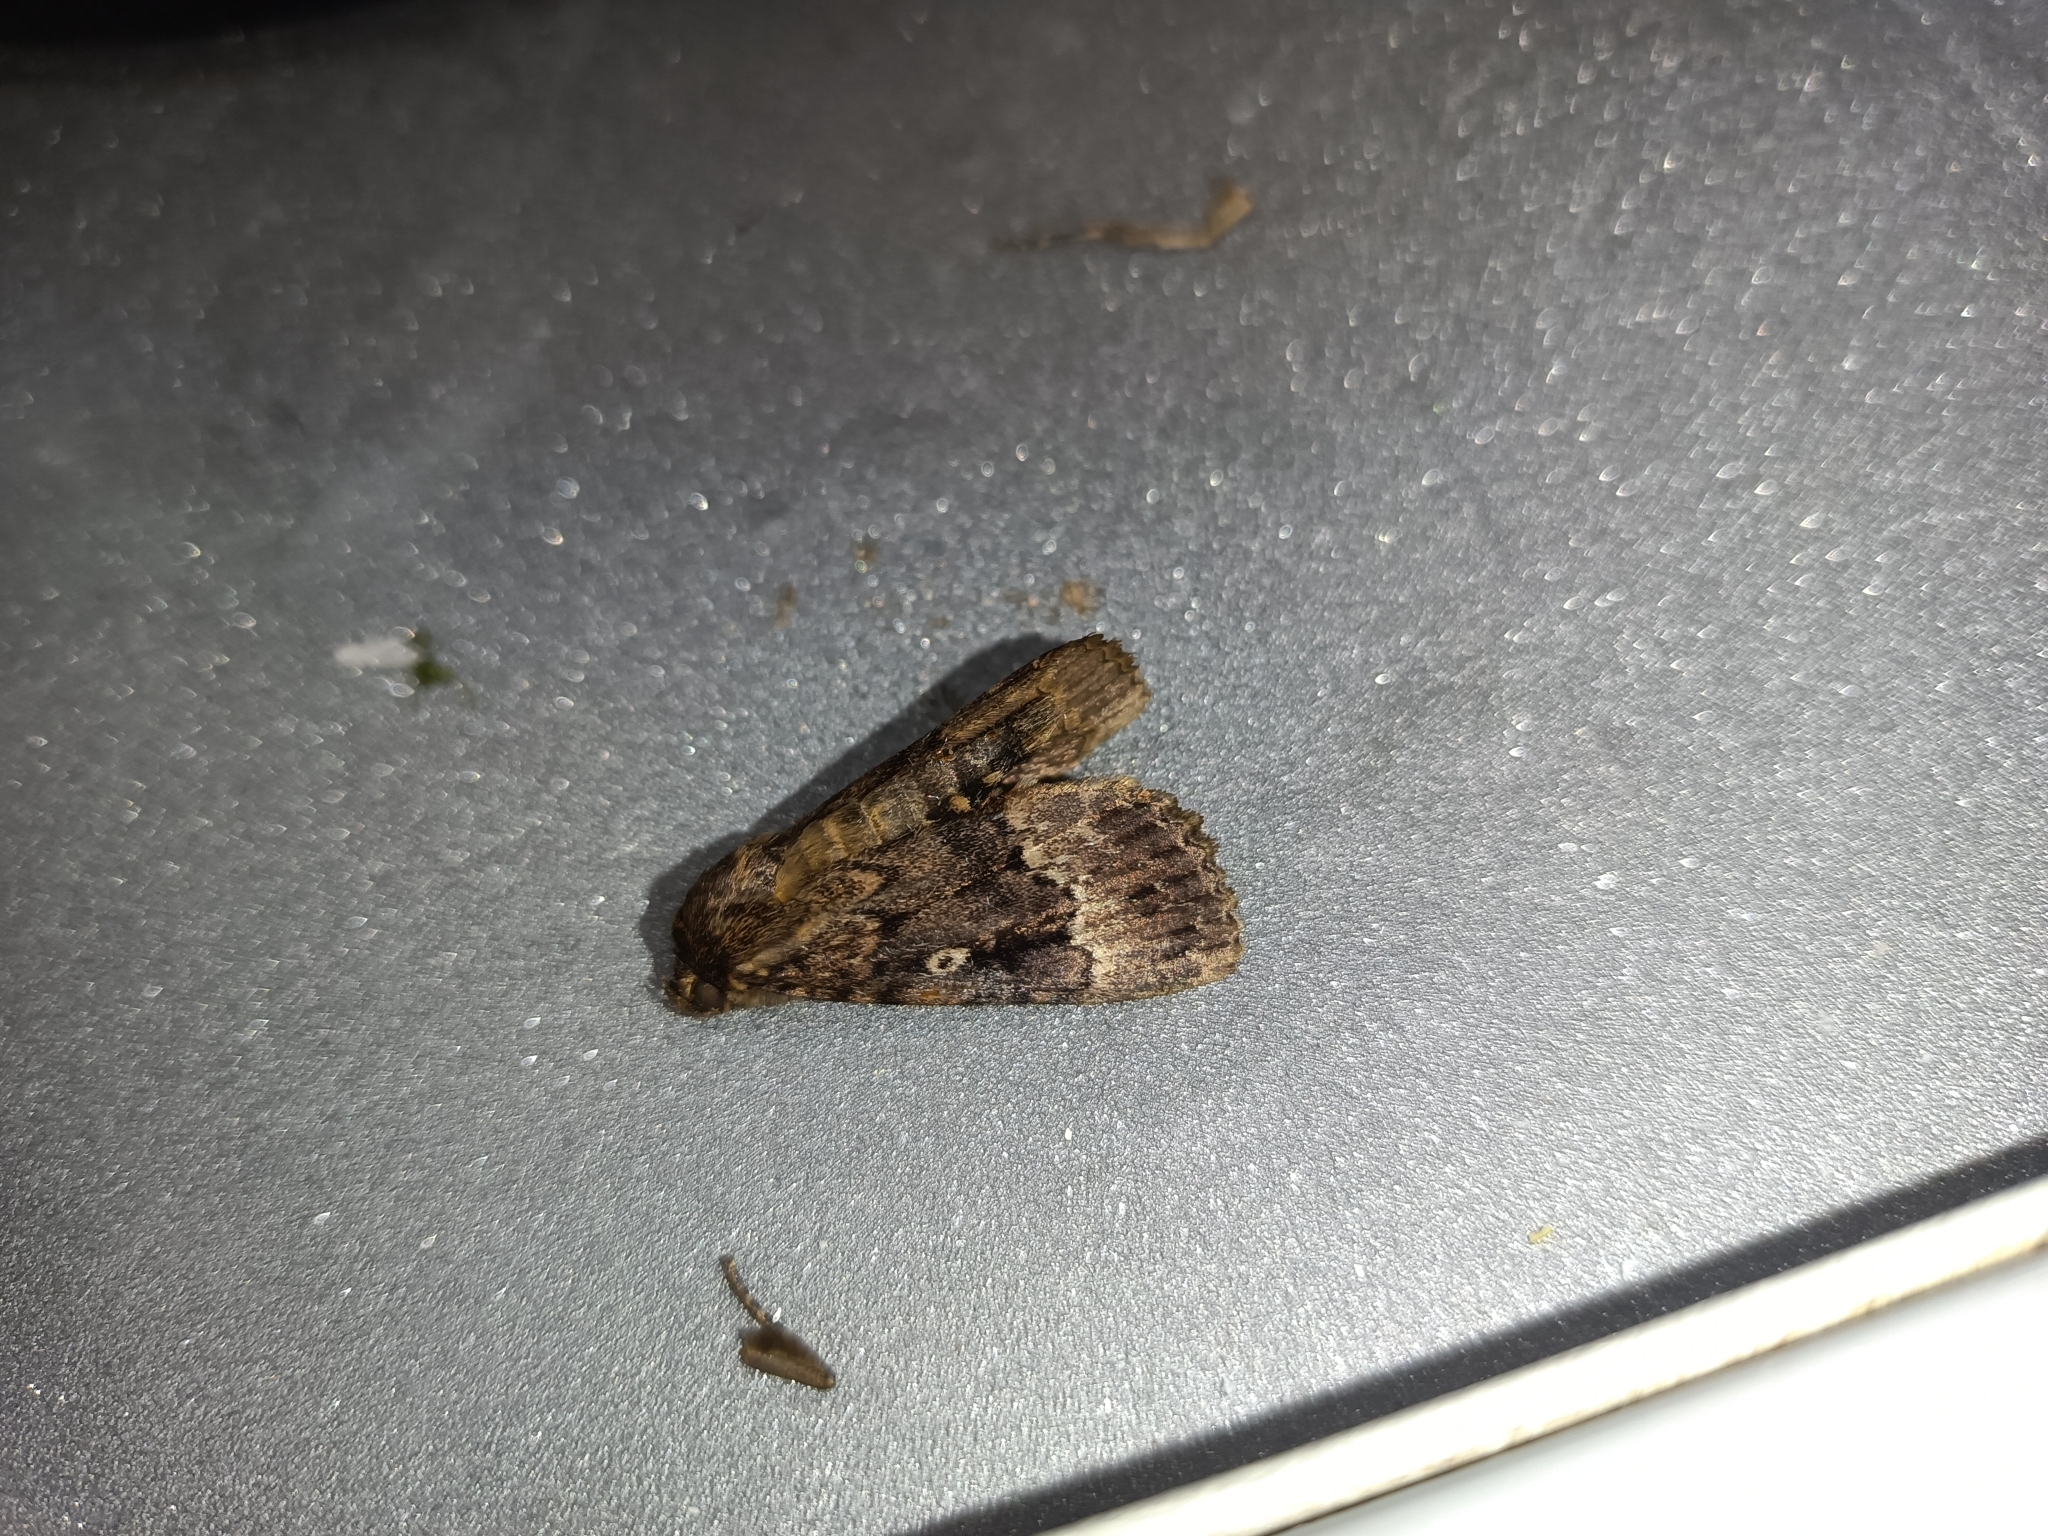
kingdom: Animalia
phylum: Arthropoda
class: Insecta
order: Lepidoptera
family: Noctuidae
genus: Amphipyra
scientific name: Amphipyra berbera
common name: Svensson's copper underwing
